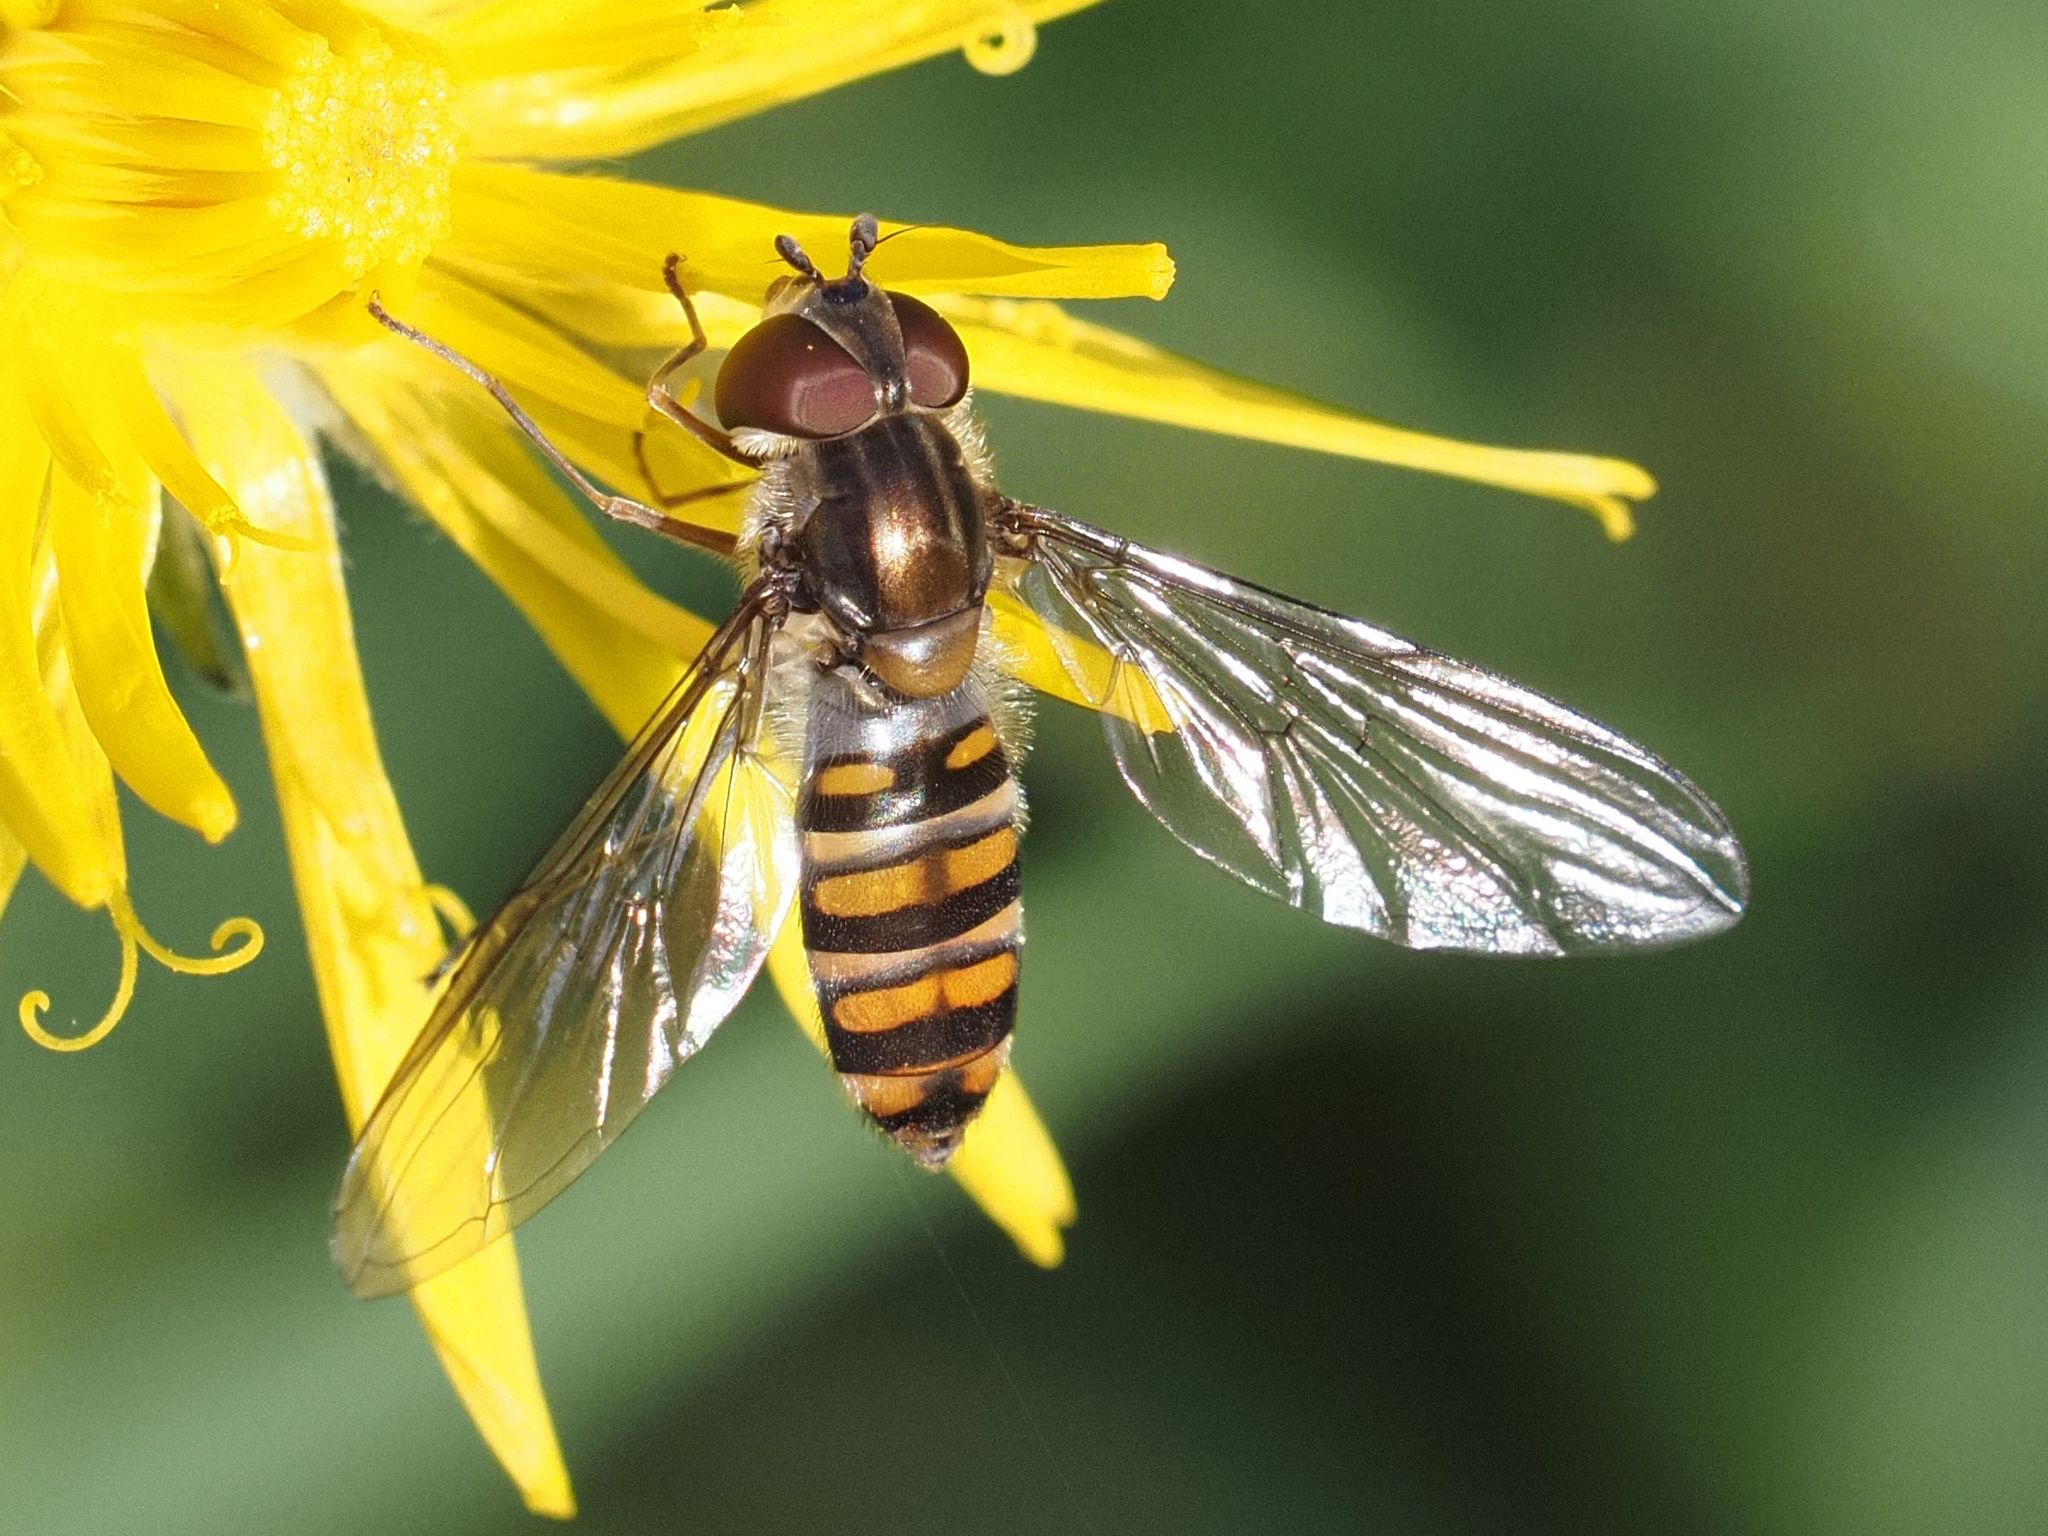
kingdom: Animalia
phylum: Arthropoda
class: Insecta
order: Diptera
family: Syrphidae
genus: Episyrphus
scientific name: Episyrphus balteatus
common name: Marmalade hoverfly
